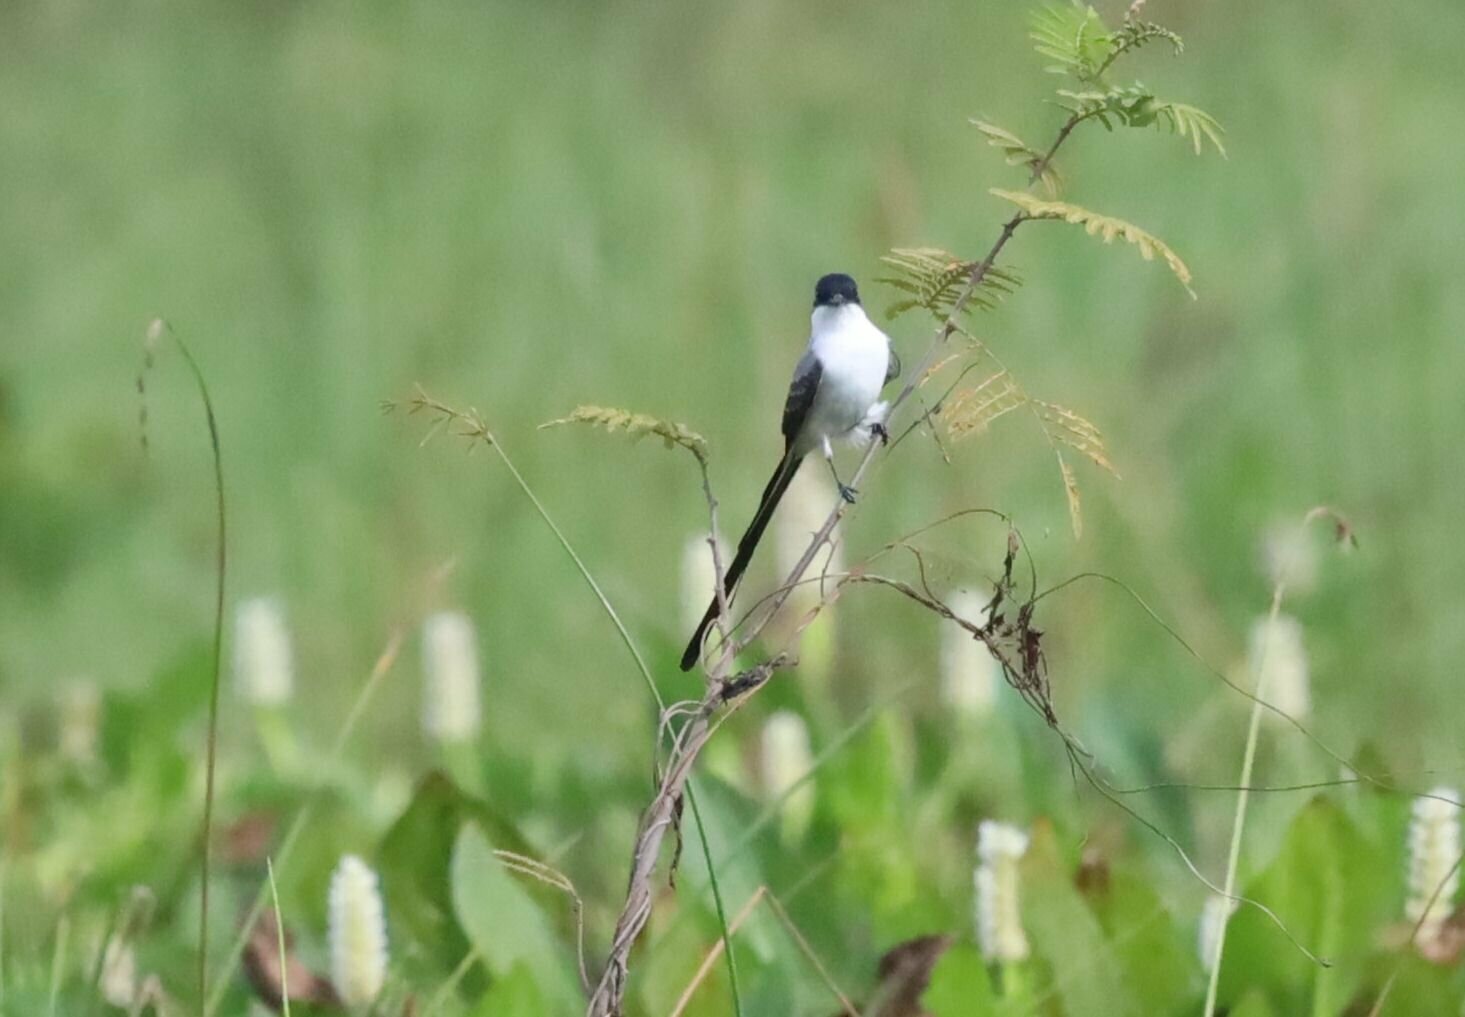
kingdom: Animalia
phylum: Chordata
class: Aves
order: Passeriformes
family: Tyrannidae
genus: Tyrannus
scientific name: Tyrannus savana
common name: Fork-tailed flycatcher
